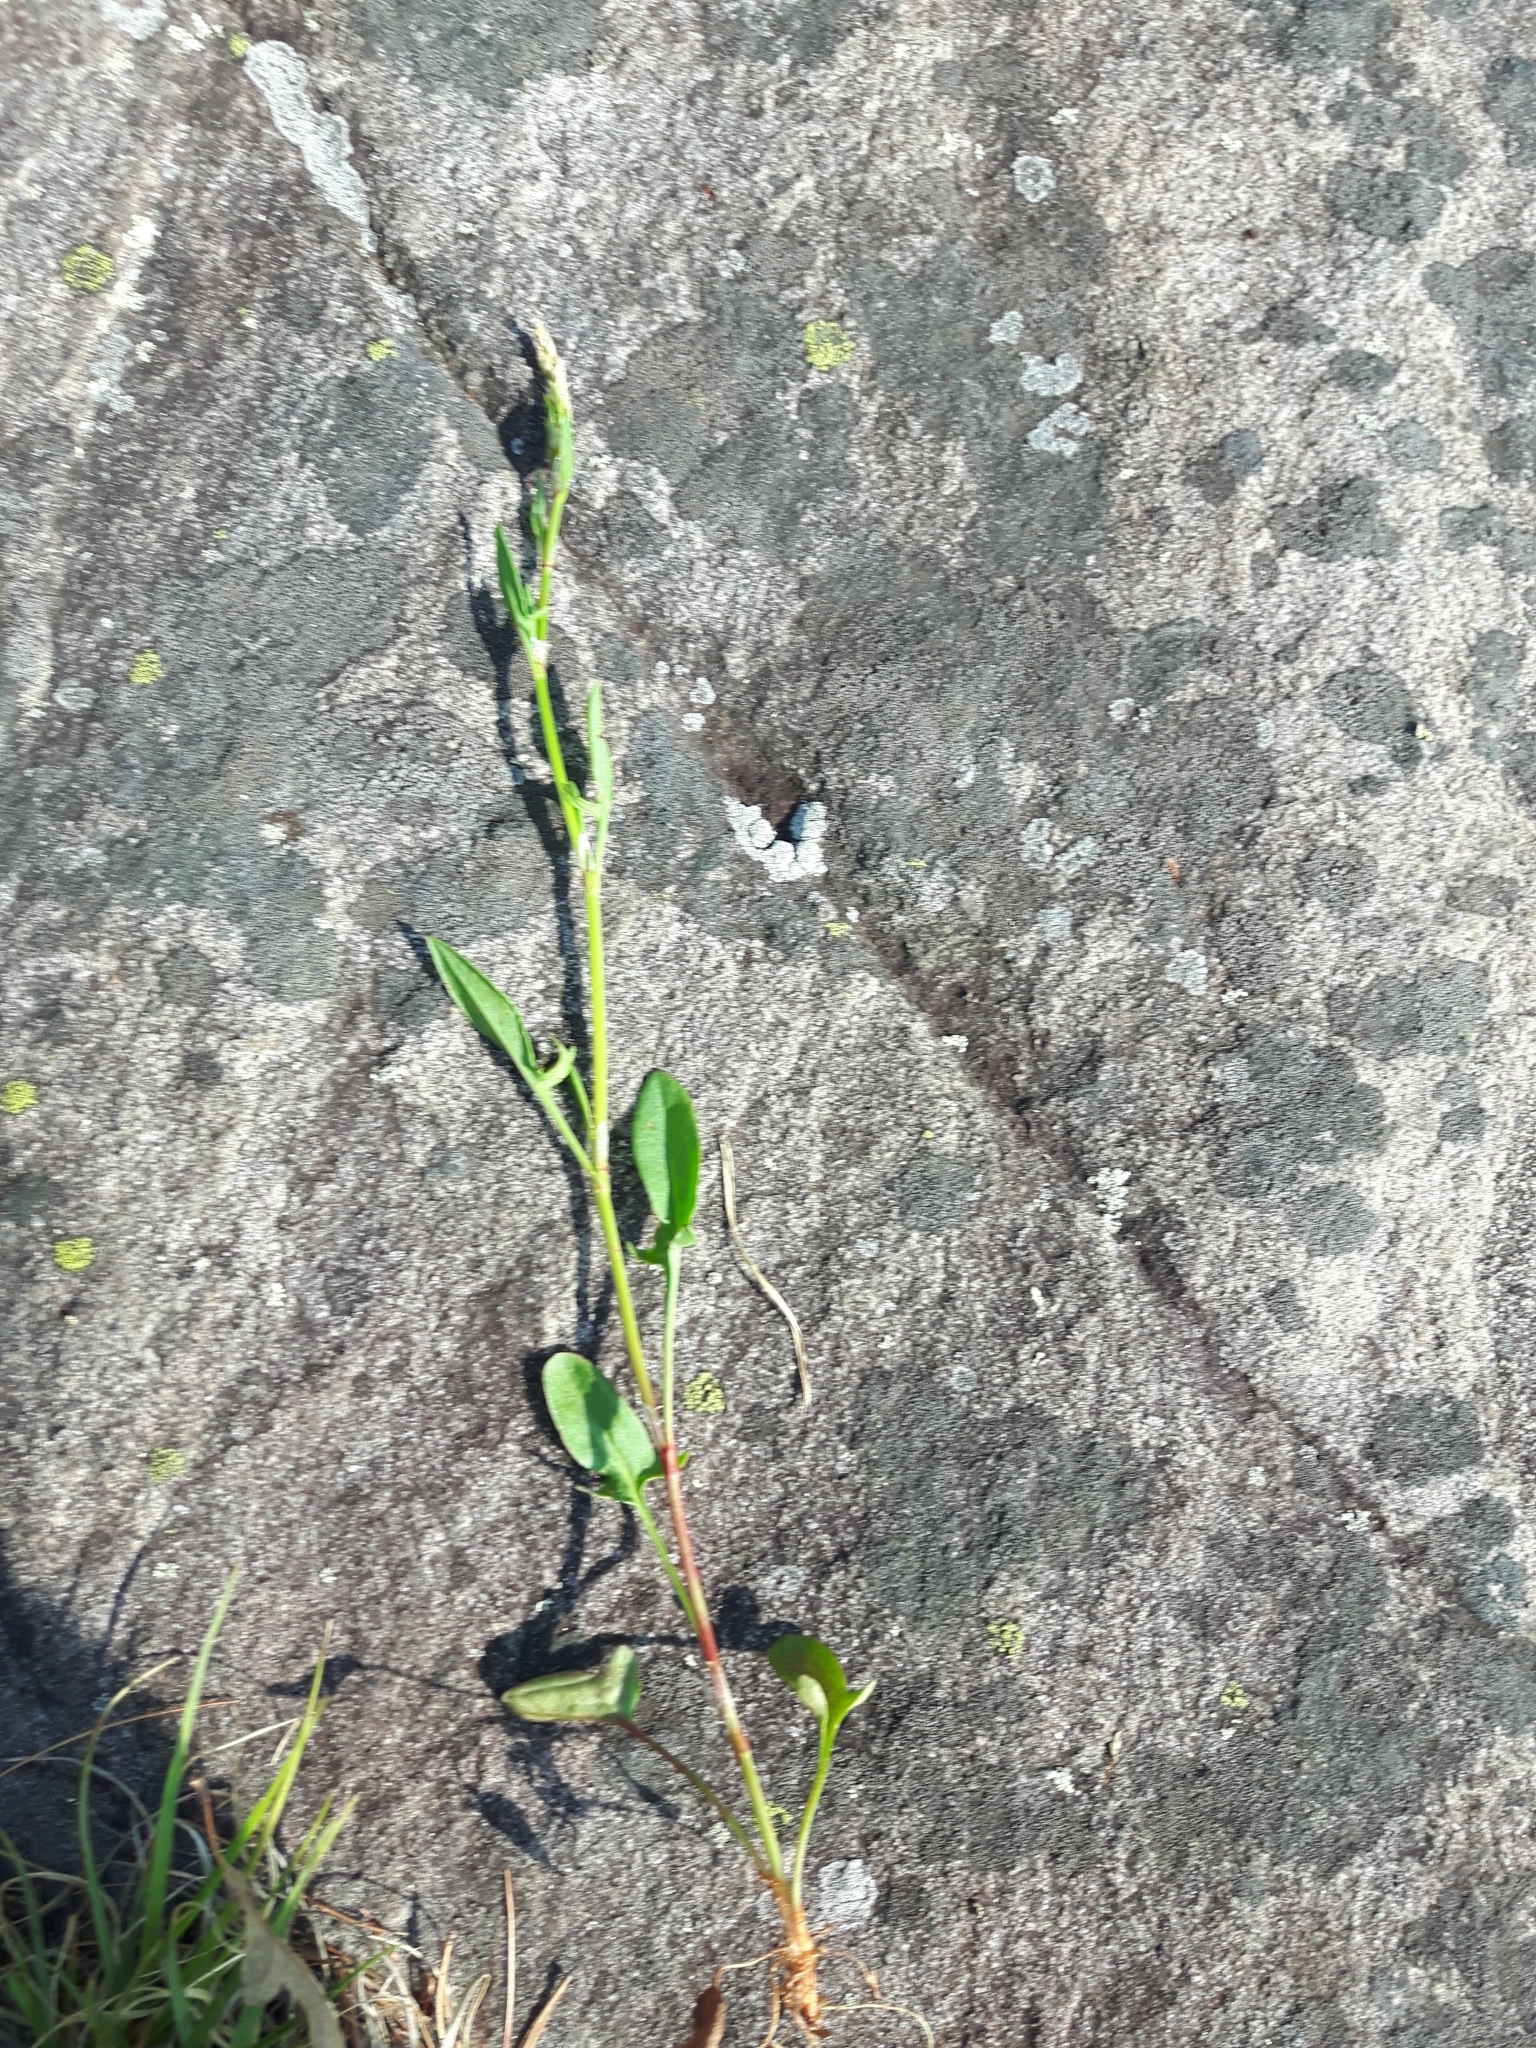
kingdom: Plantae
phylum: Tracheophyta
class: Magnoliopsida
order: Caryophyllales
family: Polygonaceae
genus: Rumex
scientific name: Rumex acetosella
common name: Common sheep sorrel
